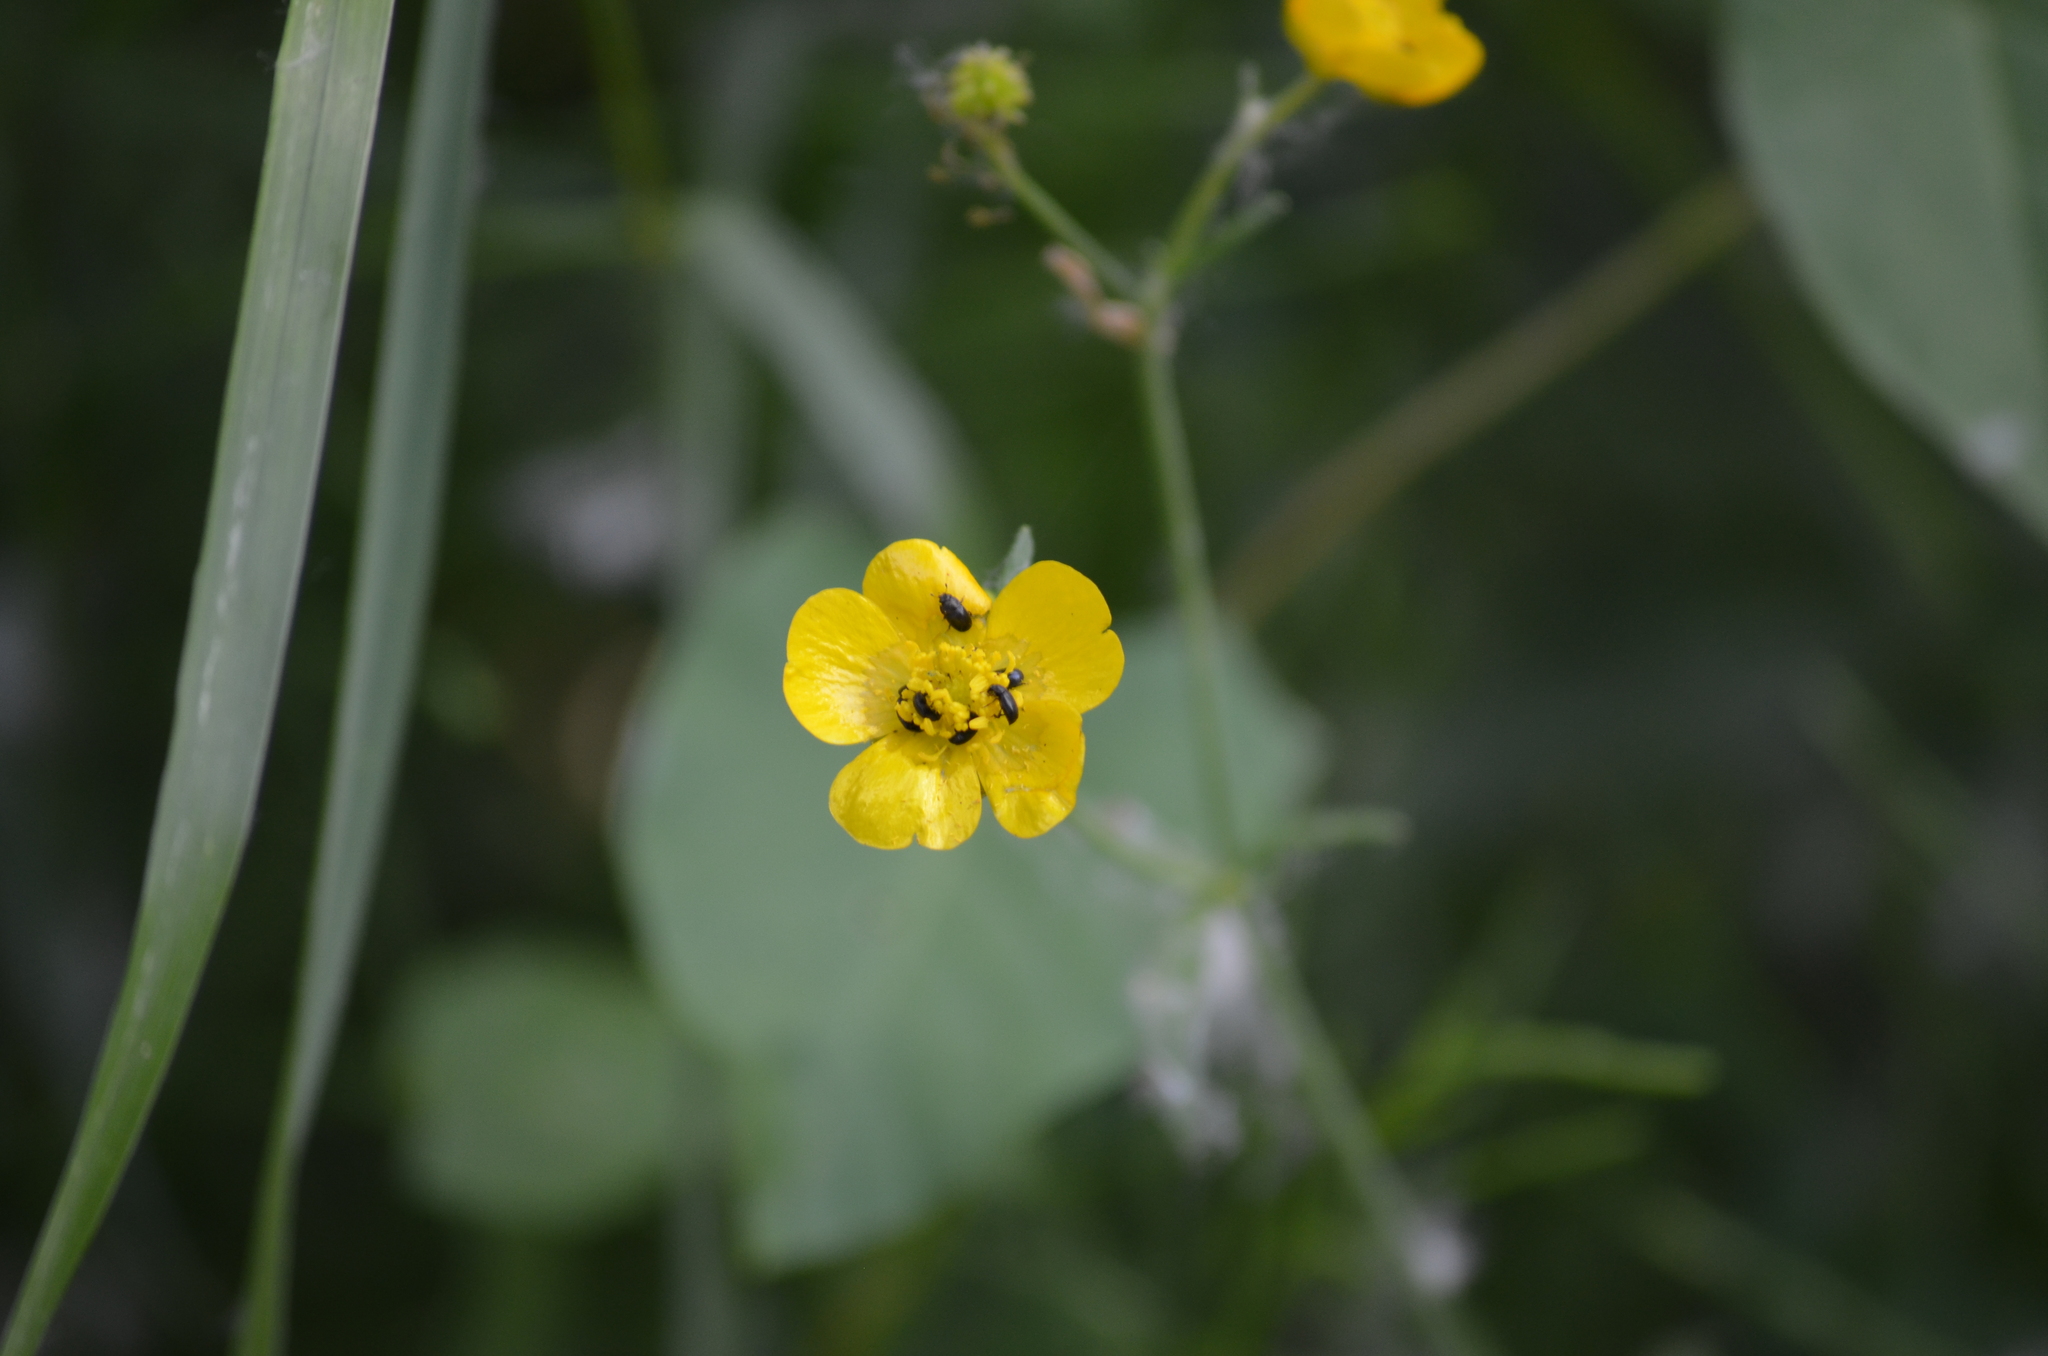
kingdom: Plantae
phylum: Tracheophyta
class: Magnoliopsida
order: Ranunculales
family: Ranunculaceae
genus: Ranunculus
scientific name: Ranunculus acris
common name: Meadow buttercup
